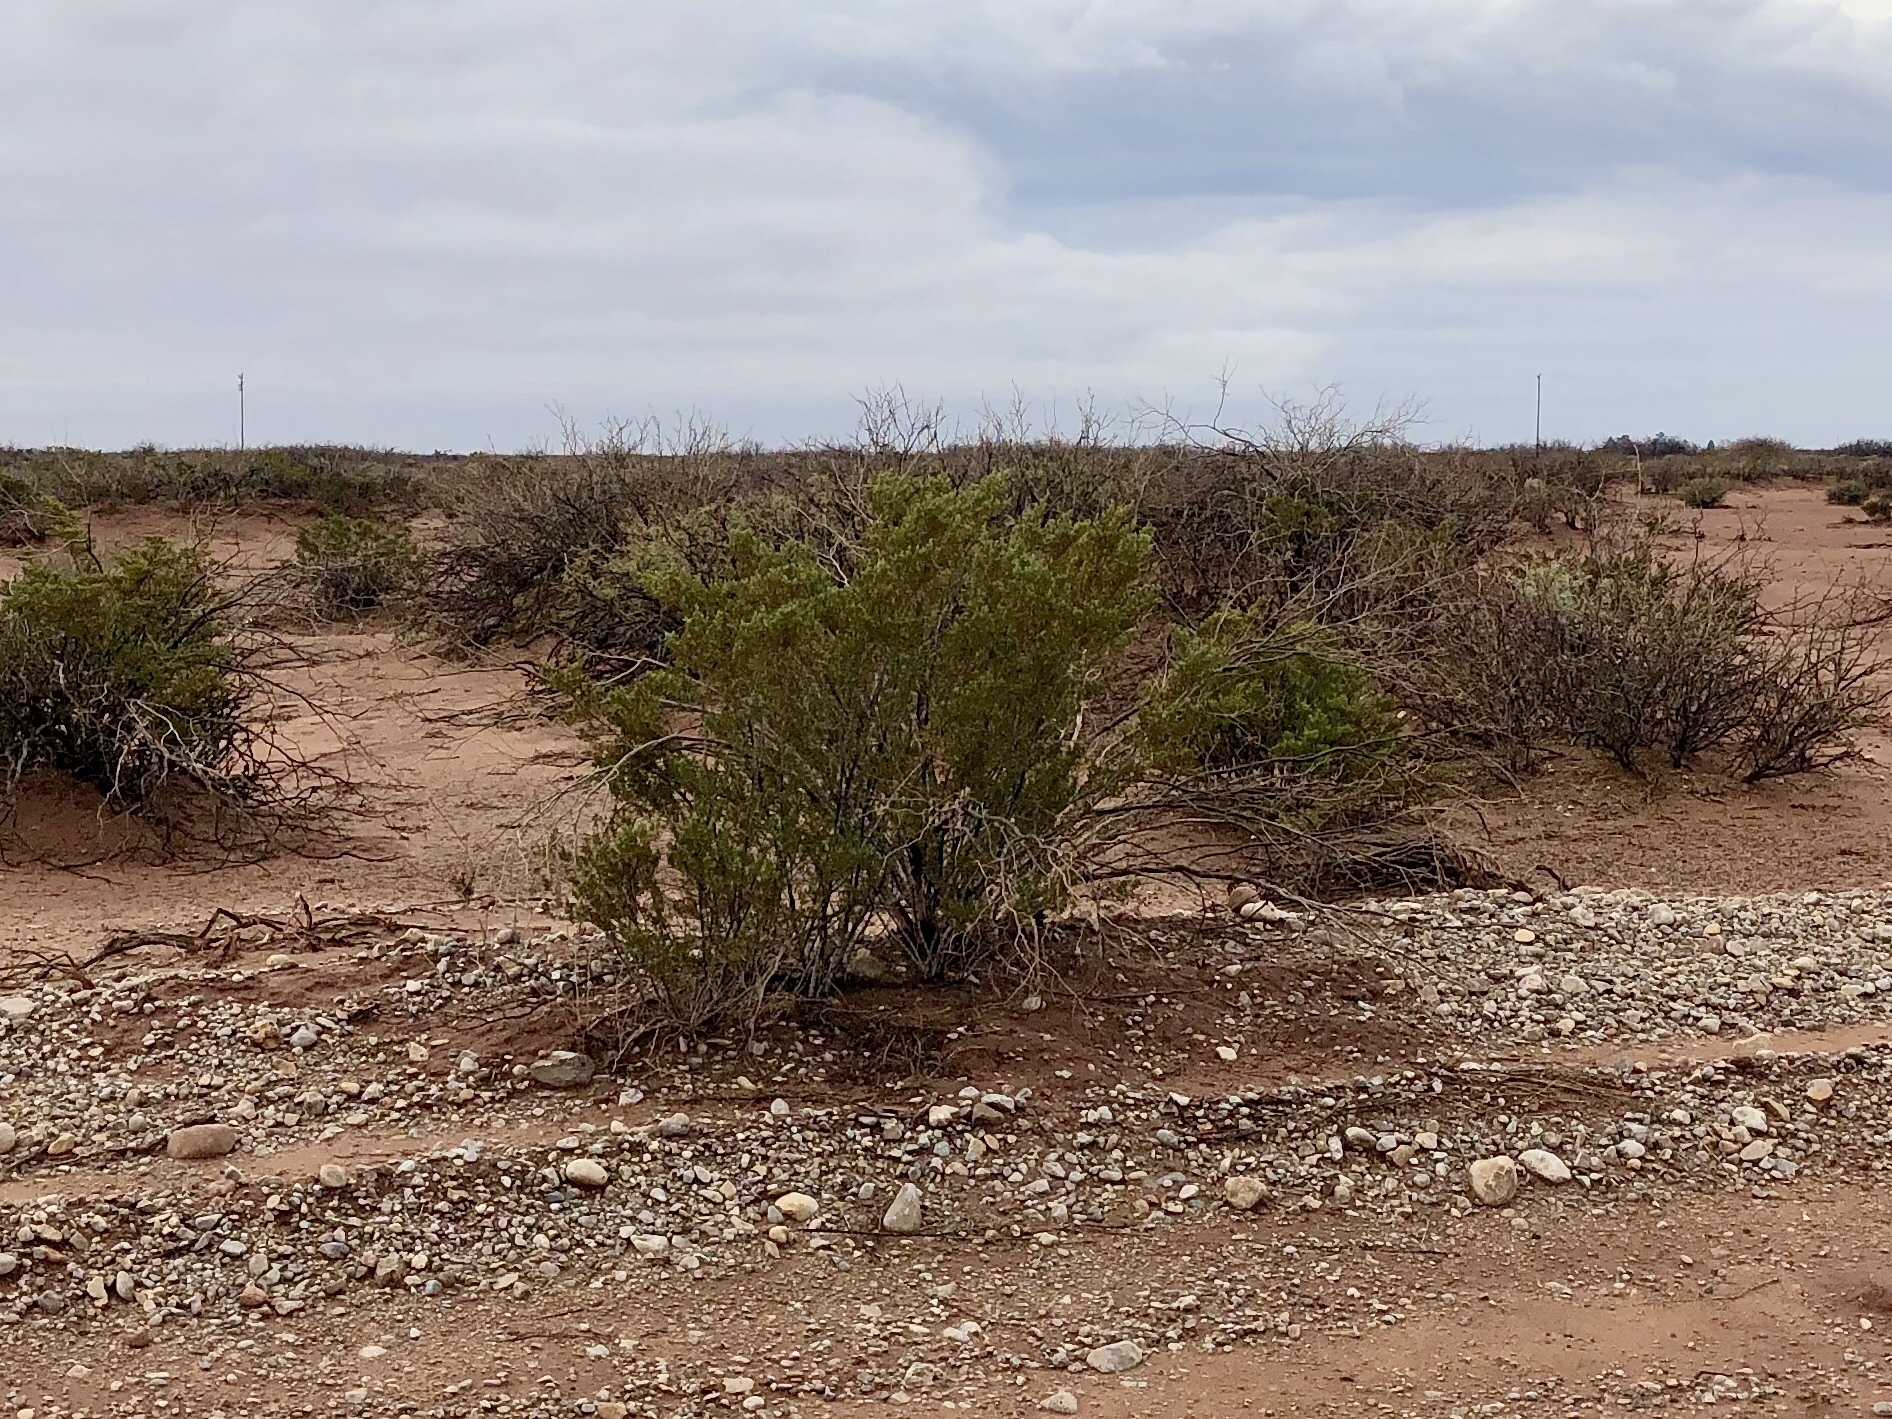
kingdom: Plantae
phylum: Tracheophyta
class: Magnoliopsida
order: Zygophyllales
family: Zygophyllaceae
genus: Larrea
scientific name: Larrea tridentata
